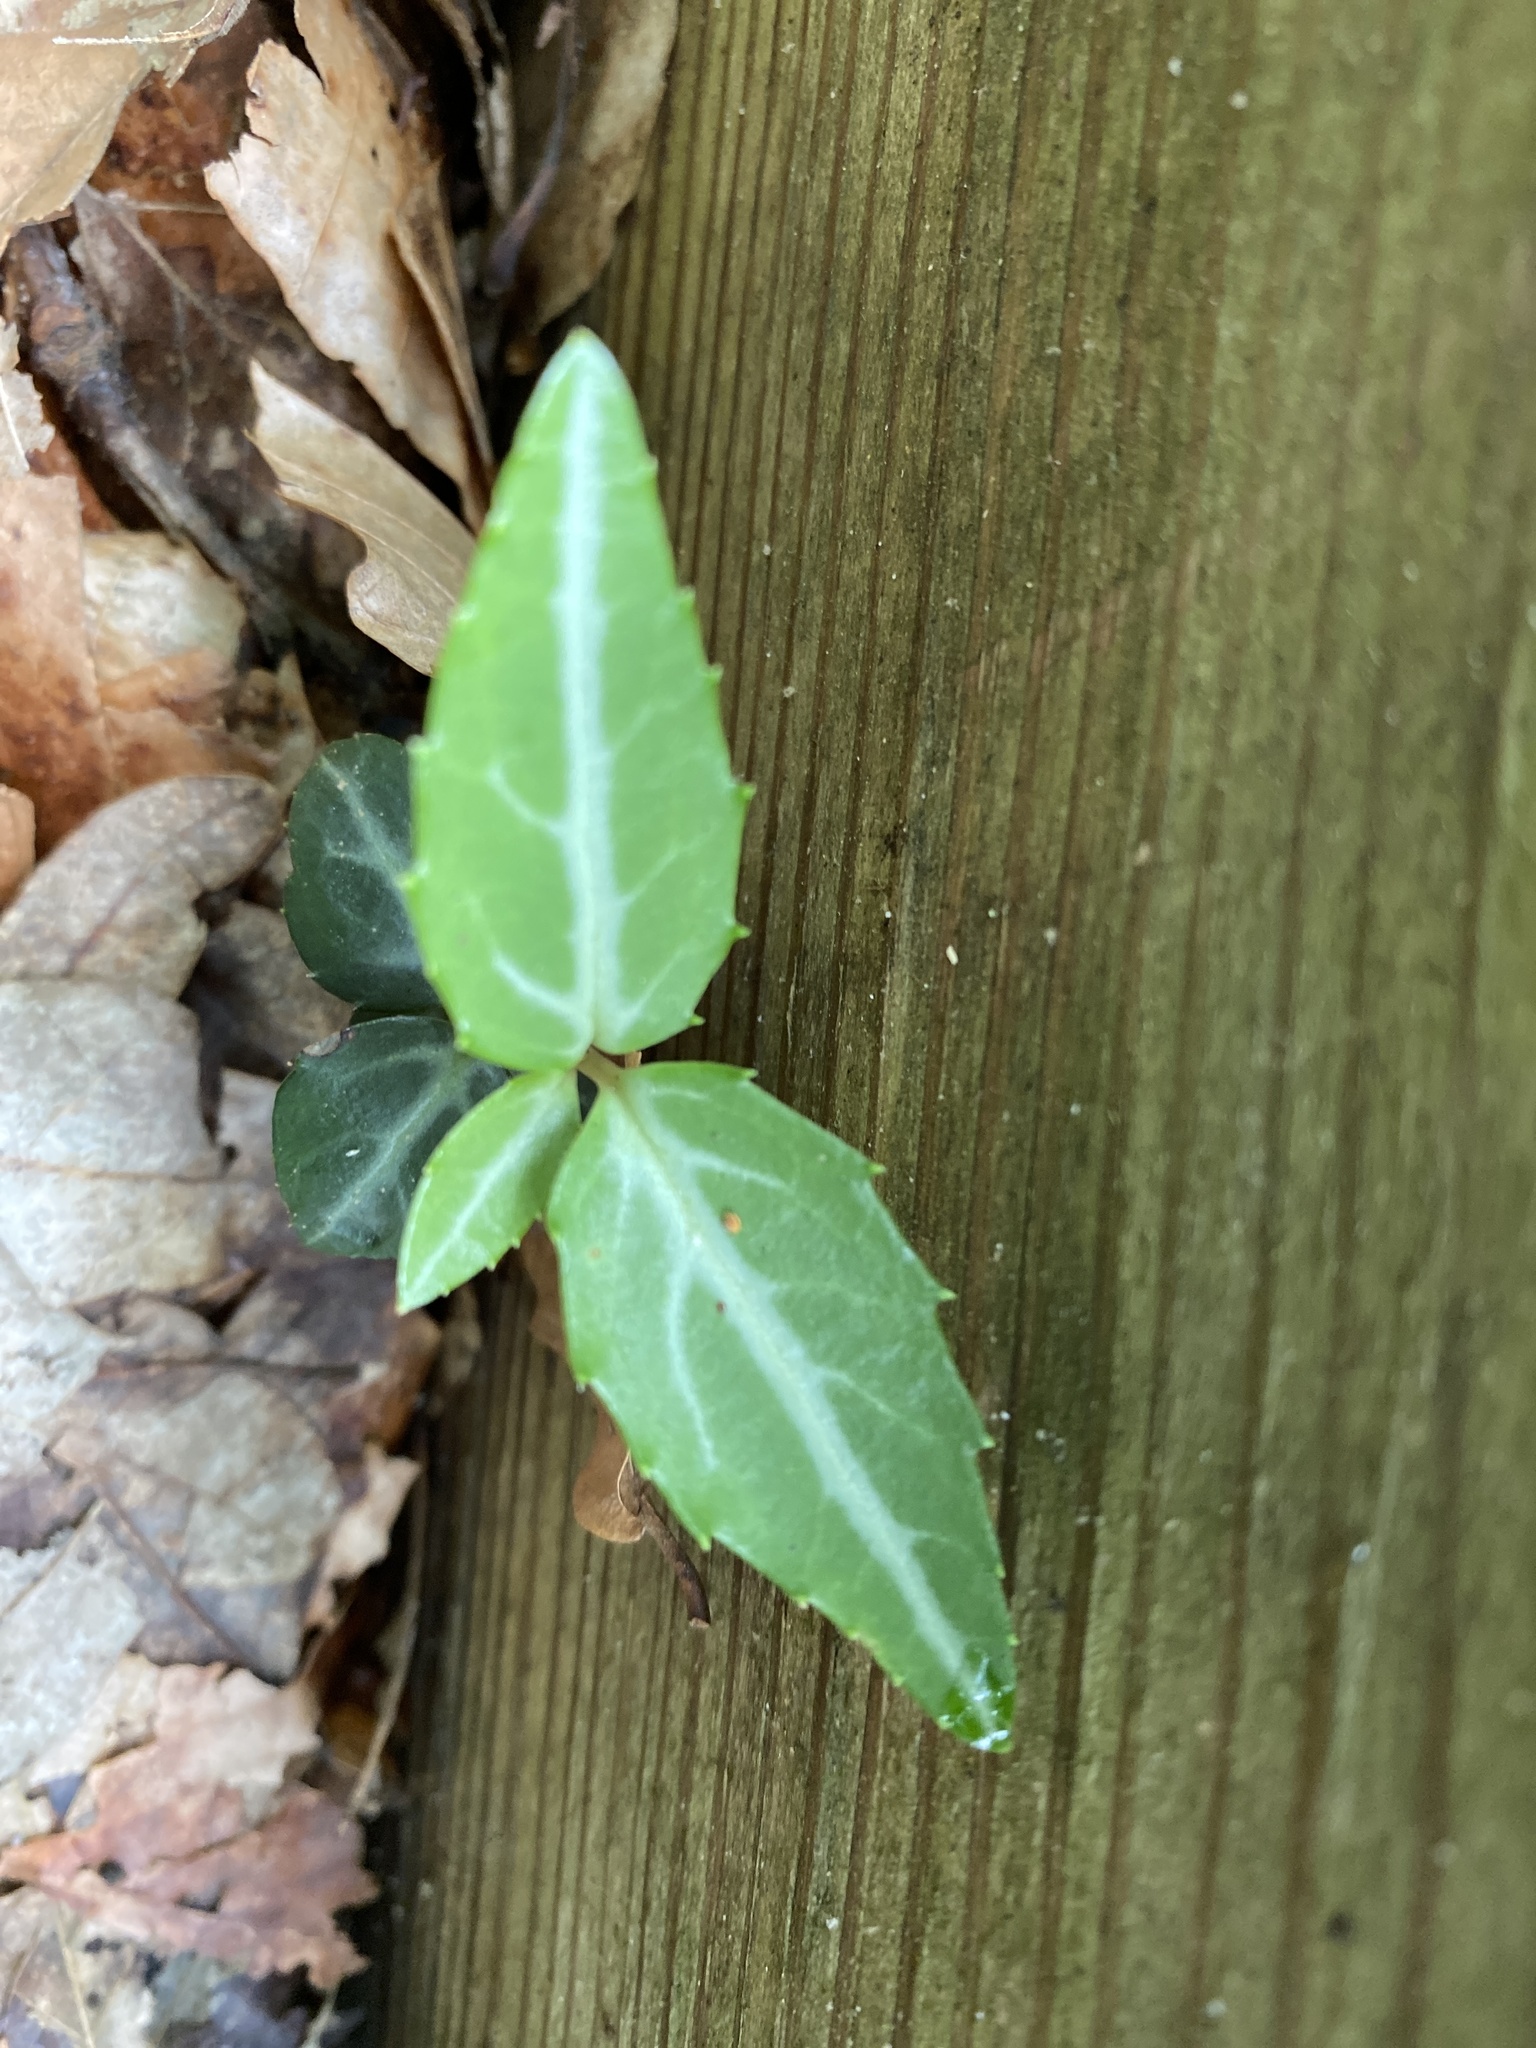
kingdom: Plantae
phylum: Tracheophyta
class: Magnoliopsida
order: Ericales
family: Ericaceae
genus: Chimaphila
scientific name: Chimaphila maculata
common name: Spotted pipsissewa
